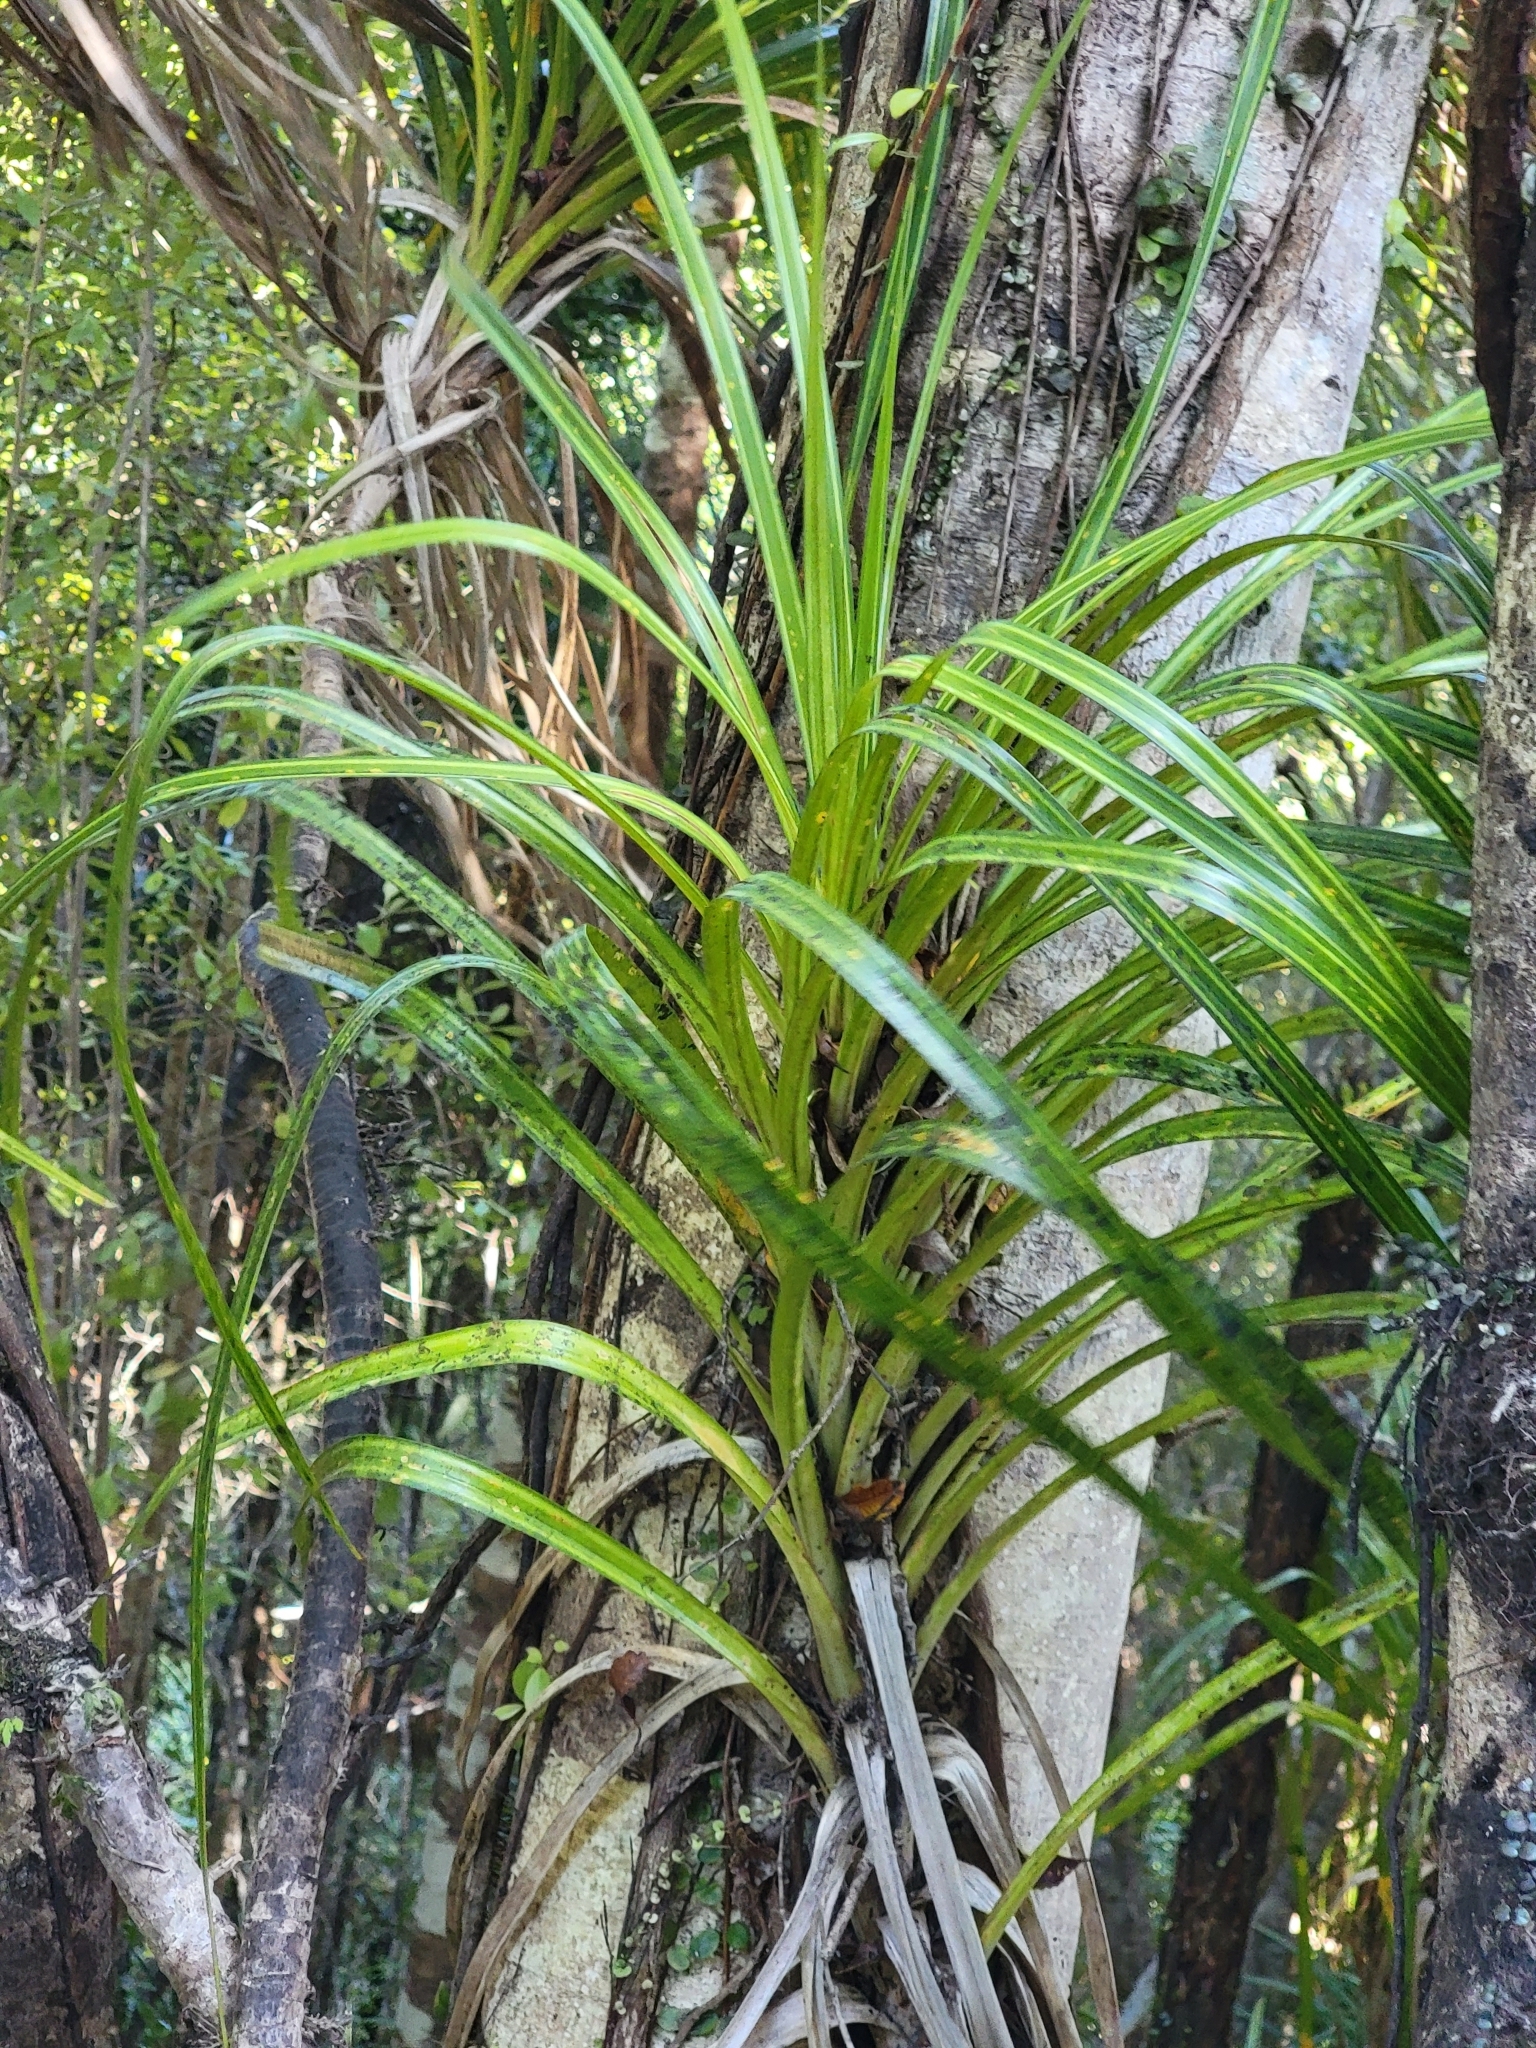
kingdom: Plantae
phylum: Tracheophyta
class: Liliopsida
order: Pandanales
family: Pandanaceae
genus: Freycinetia
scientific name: Freycinetia banksii
